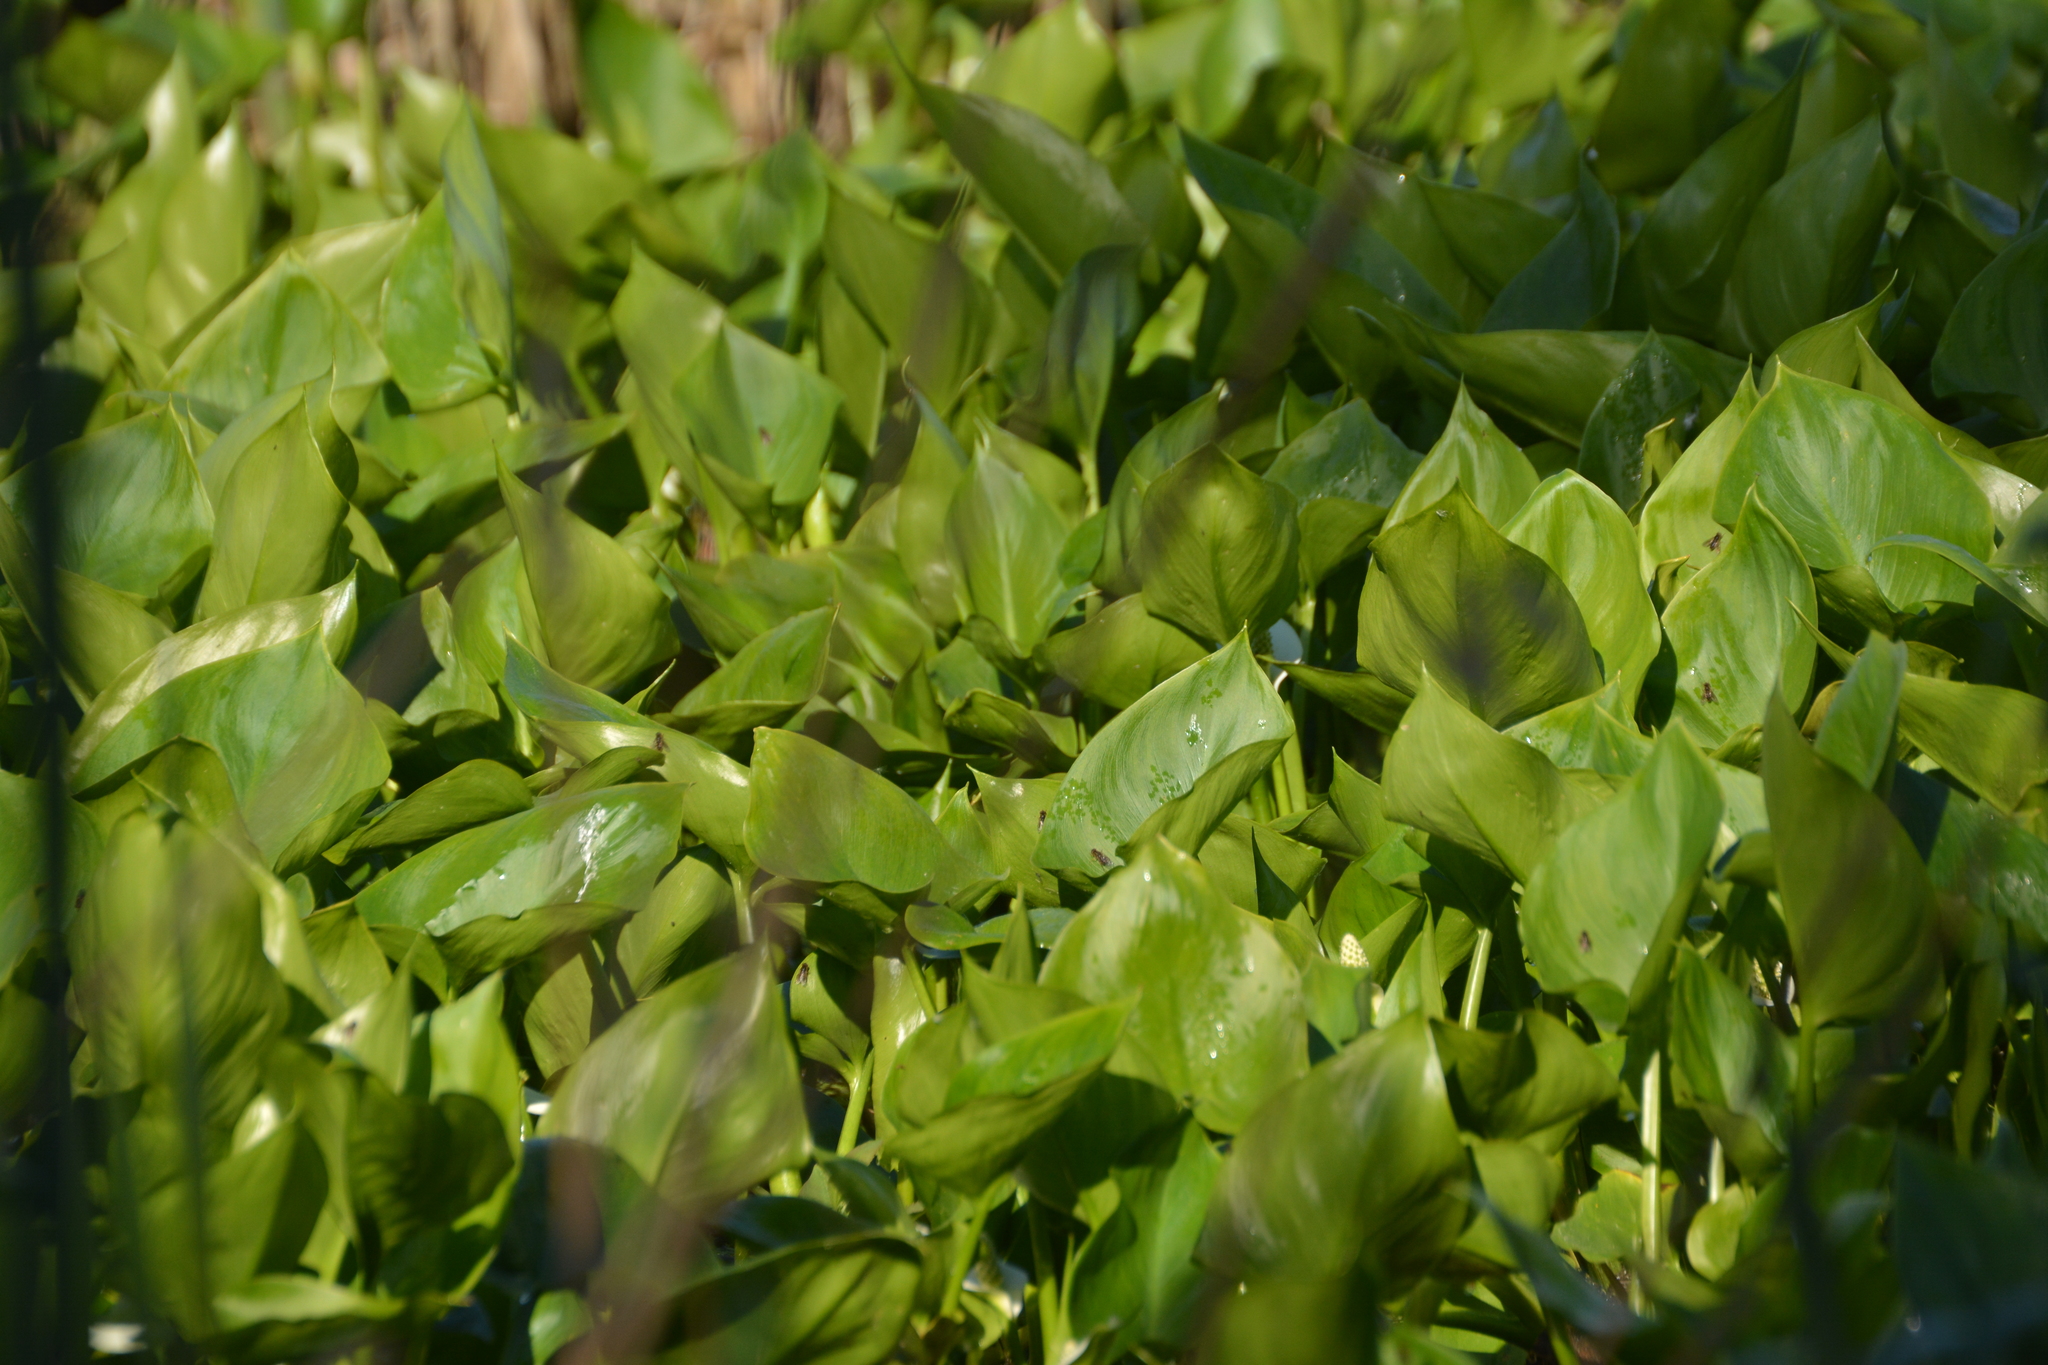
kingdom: Plantae
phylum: Tracheophyta
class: Liliopsida
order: Alismatales
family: Araceae
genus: Calla
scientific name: Calla palustris
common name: Bog arum
